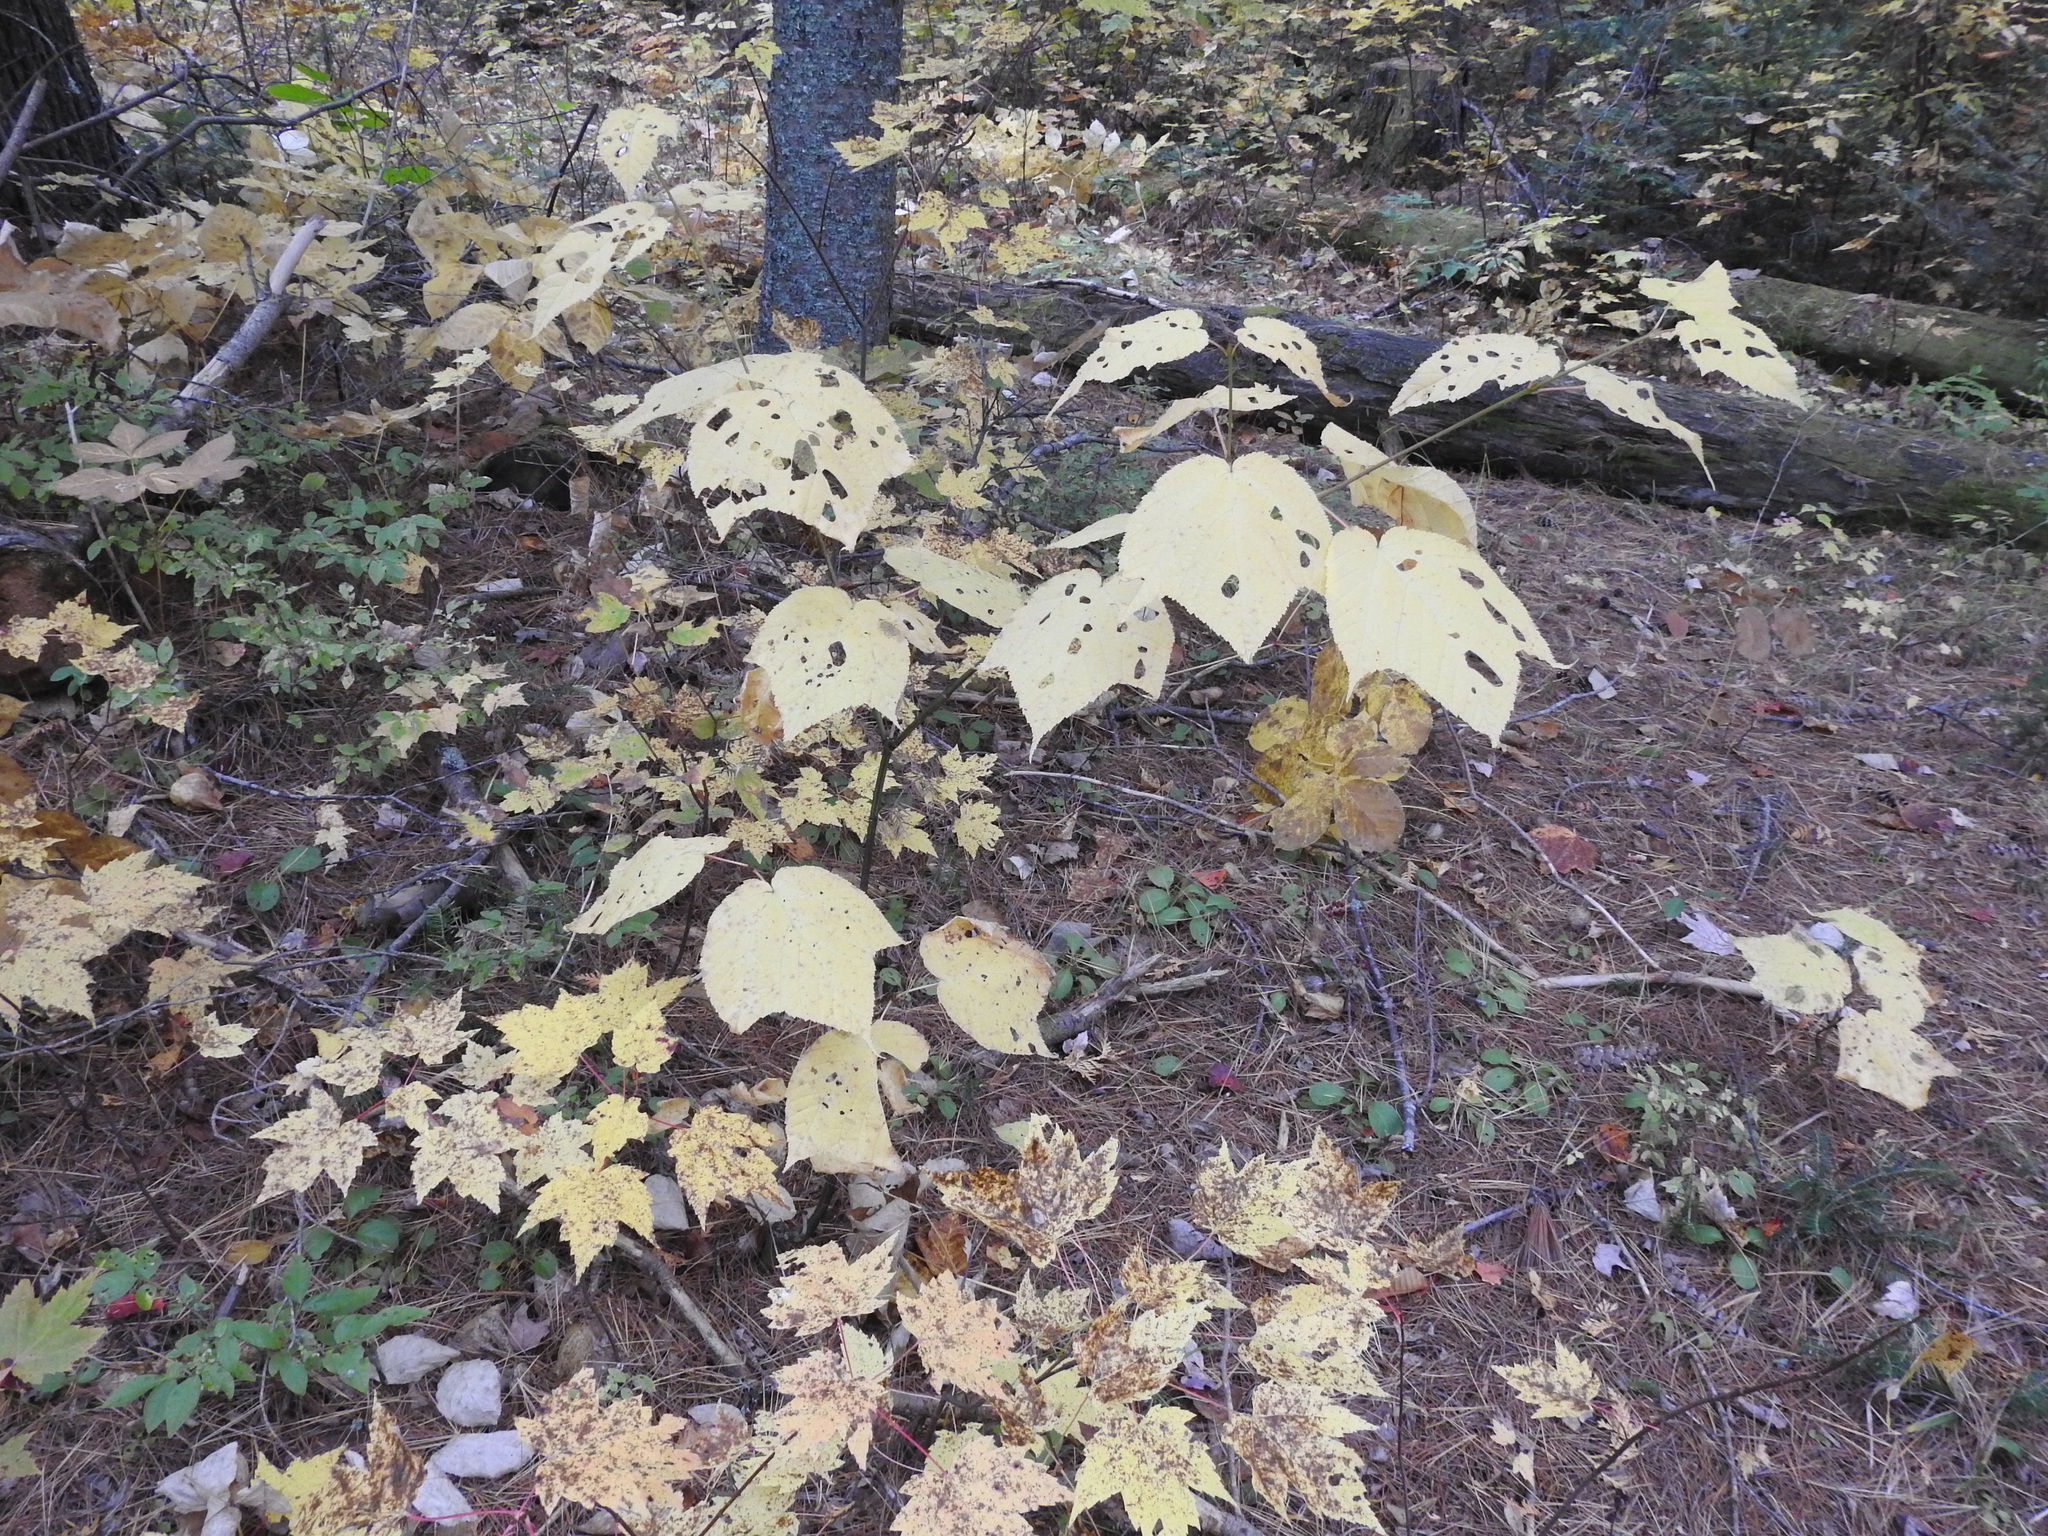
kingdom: Plantae
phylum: Tracheophyta
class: Magnoliopsida
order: Sapindales
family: Sapindaceae
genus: Acer
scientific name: Acer pensylvanicum
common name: Moosewood
